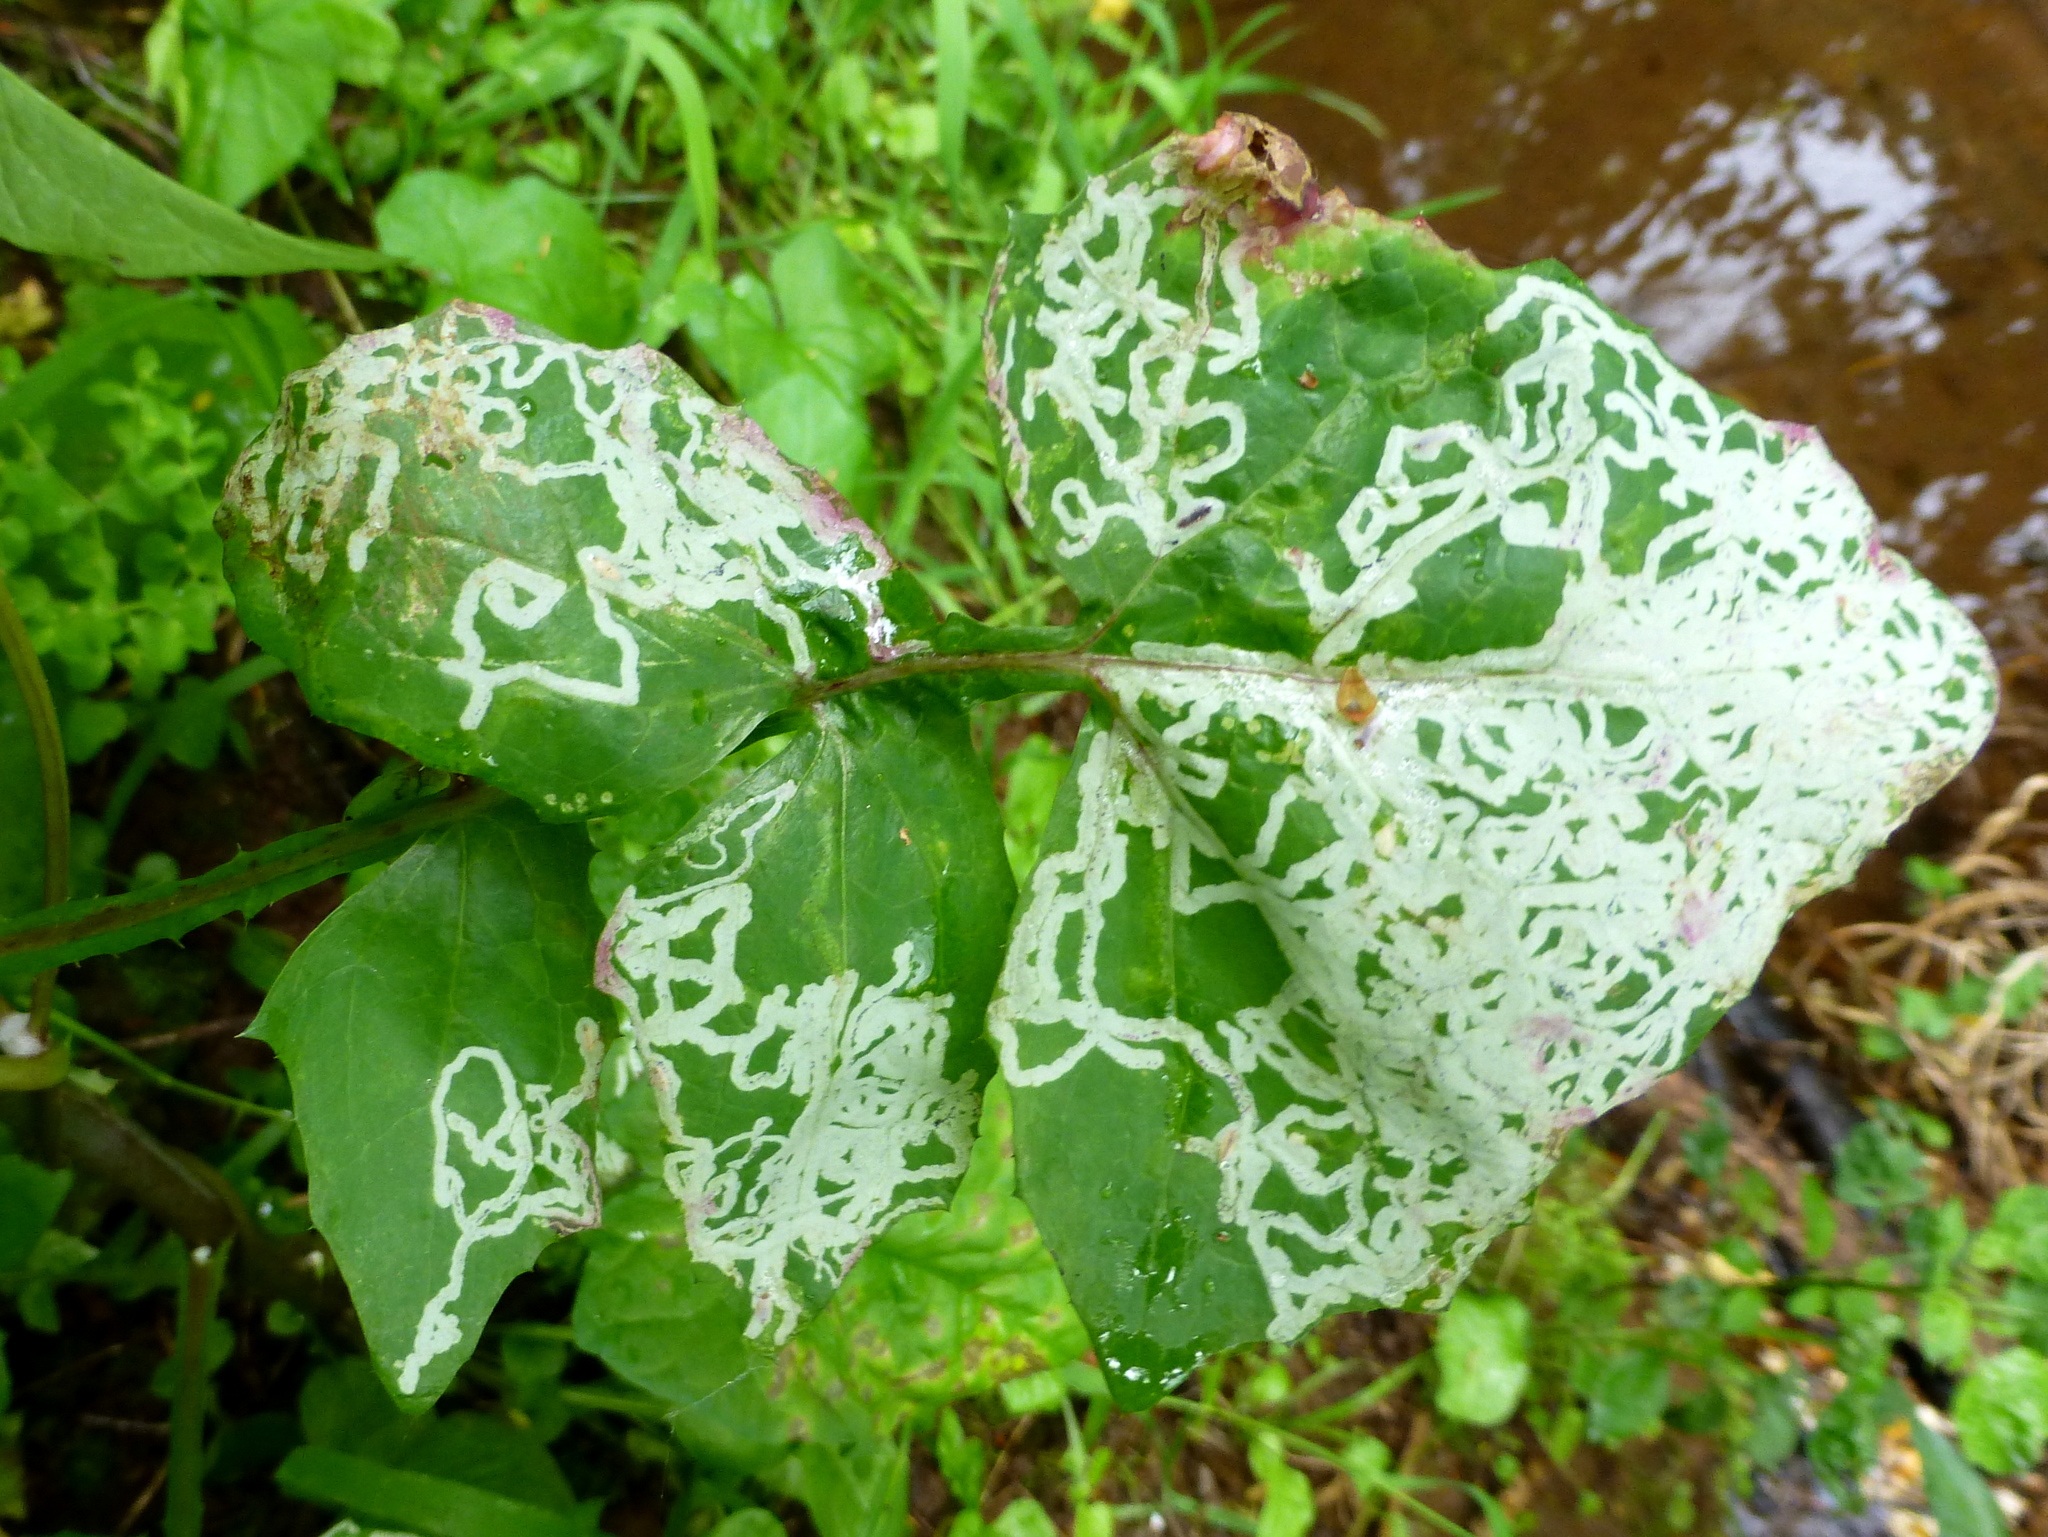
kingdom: Plantae
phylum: Tracheophyta
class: Magnoliopsida
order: Asterales
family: Asteraceae
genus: Sonchus
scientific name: Sonchus oleraceus
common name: Common sowthistle
